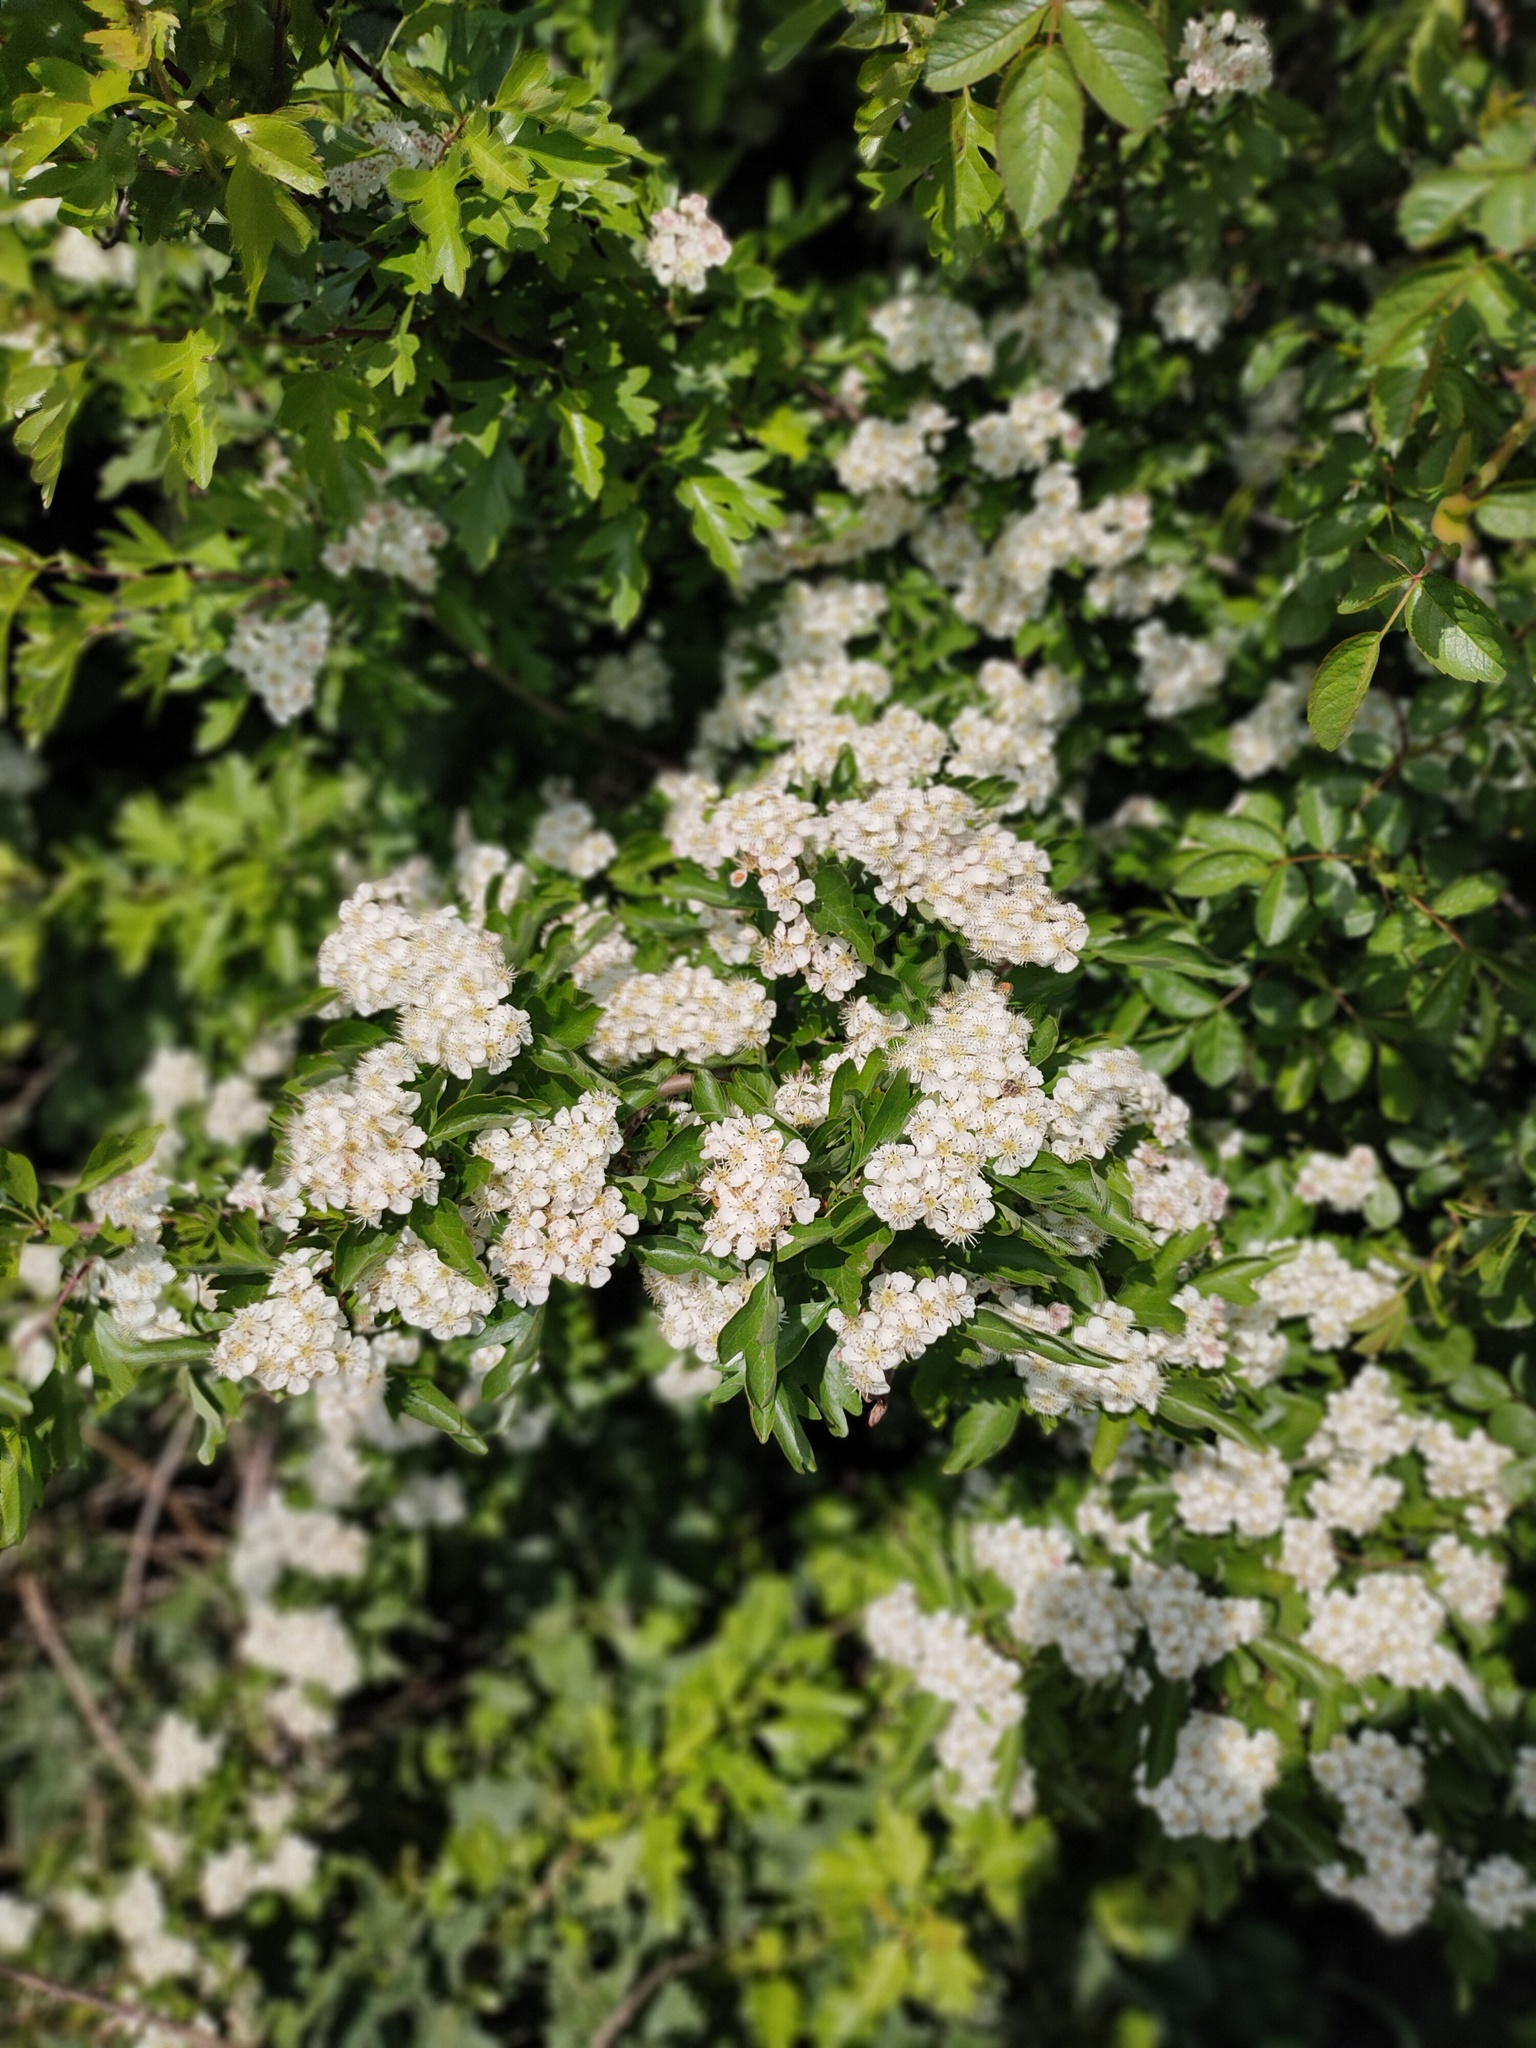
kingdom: Plantae
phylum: Tracheophyta
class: Magnoliopsida
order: Rosales
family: Rosaceae
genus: Crataegus
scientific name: Crataegus monogyna
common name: Hawthorn
